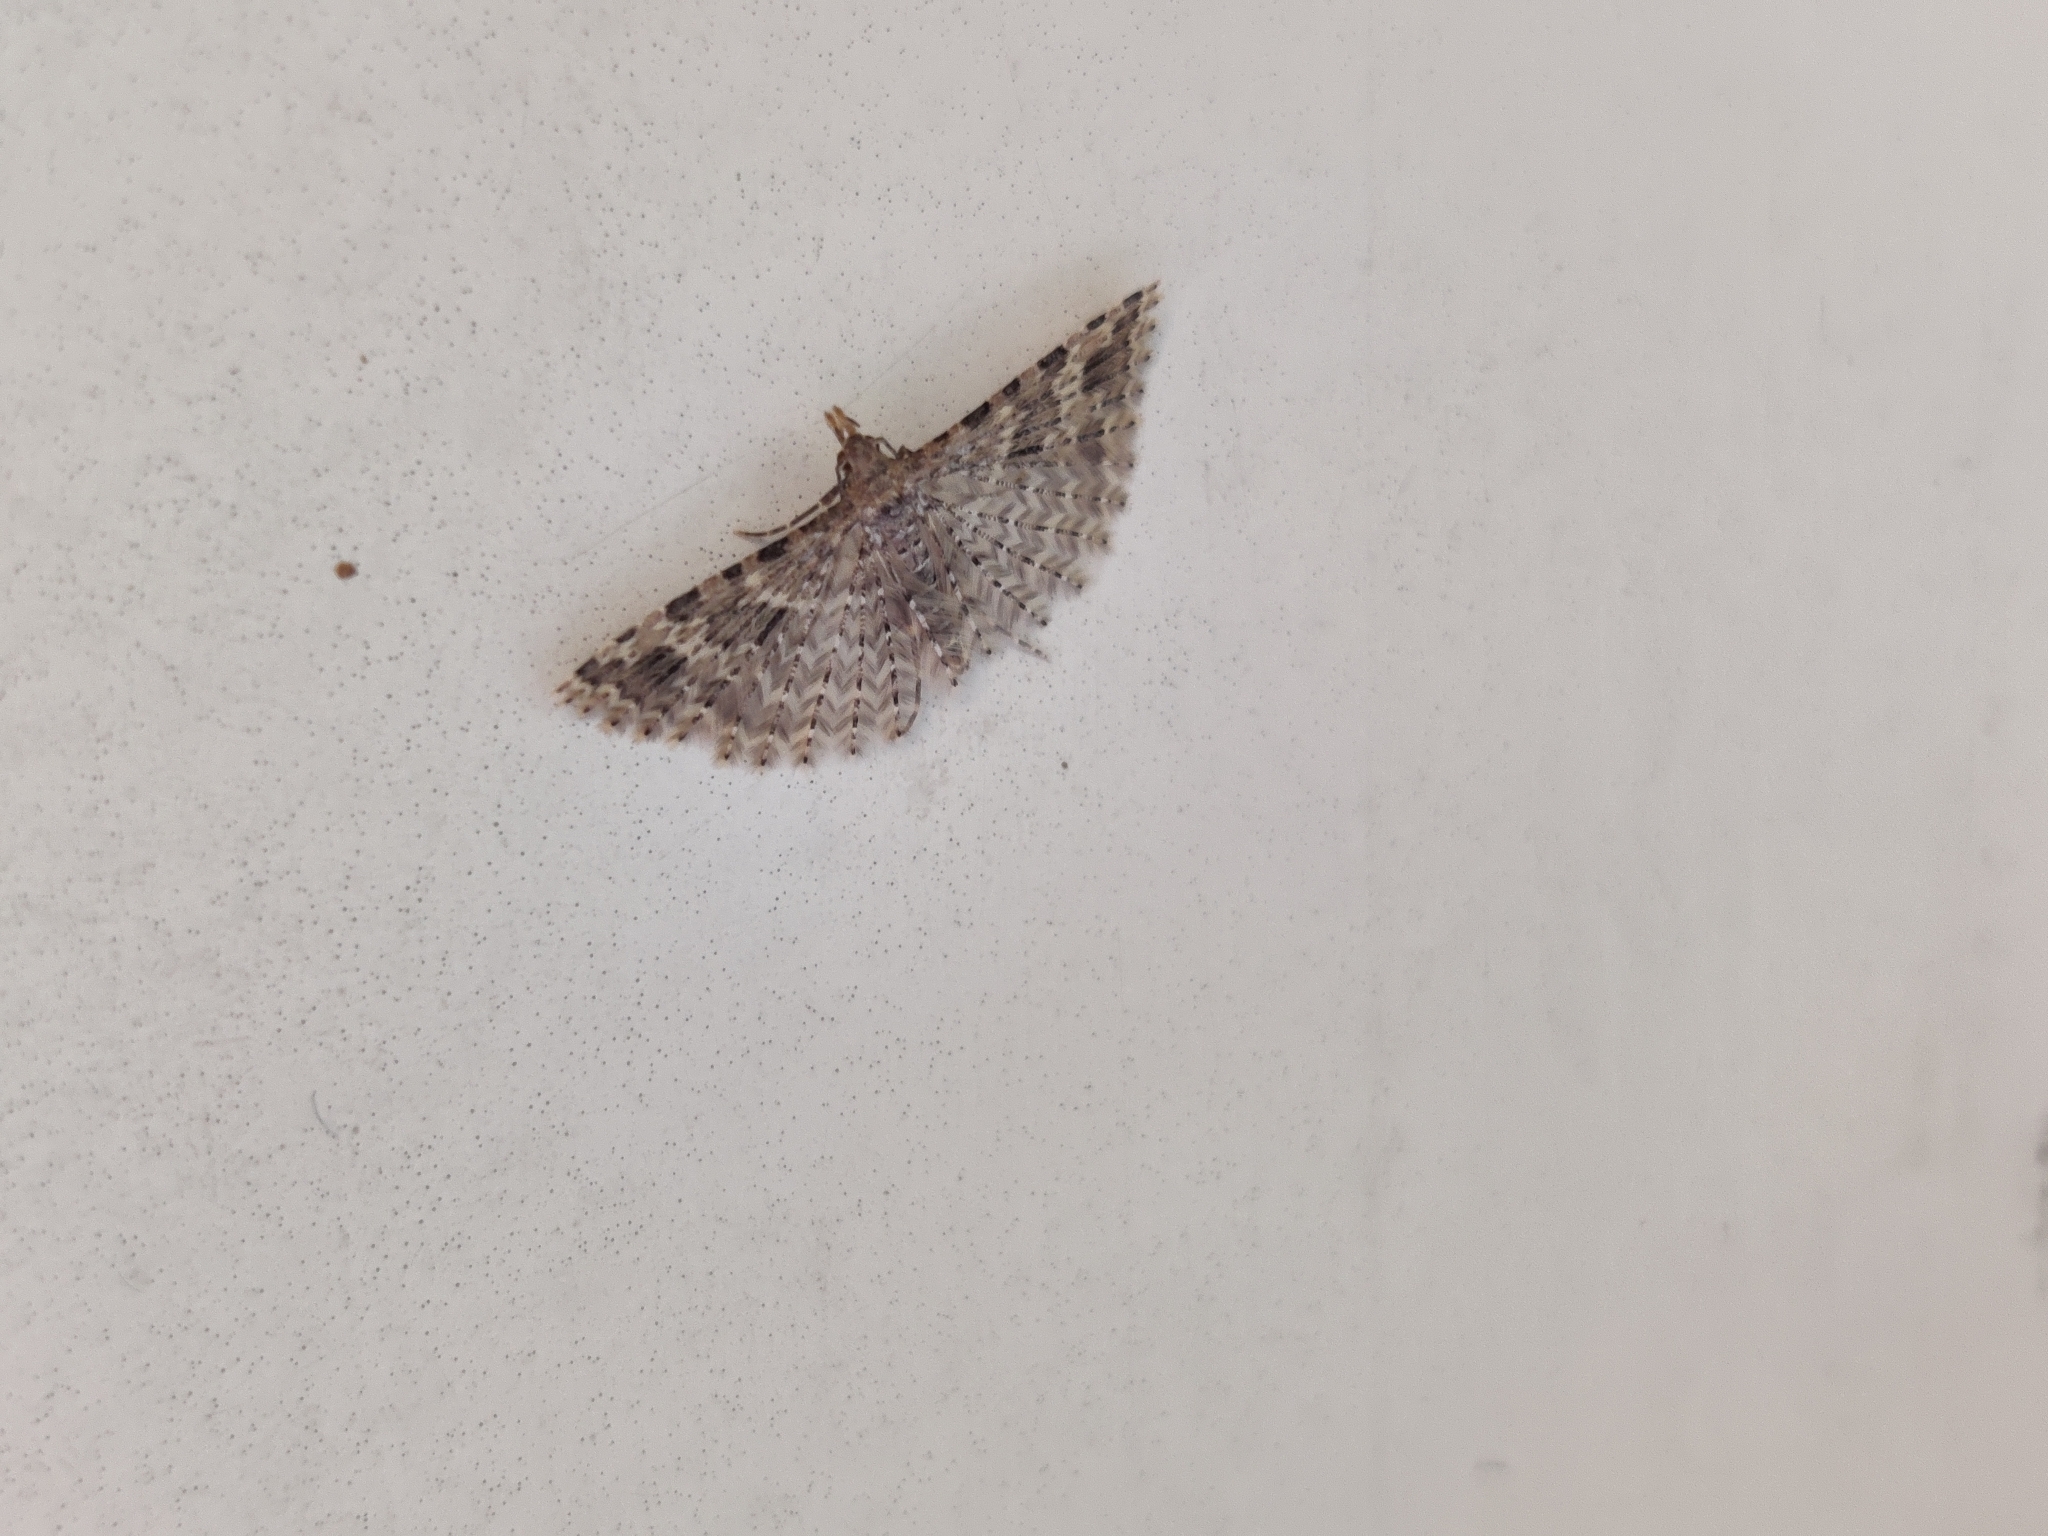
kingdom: Animalia
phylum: Arthropoda
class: Insecta
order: Lepidoptera
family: Alucitidae
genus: Alucita
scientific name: Alucita hexadactyla
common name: Twenty-plume moth
